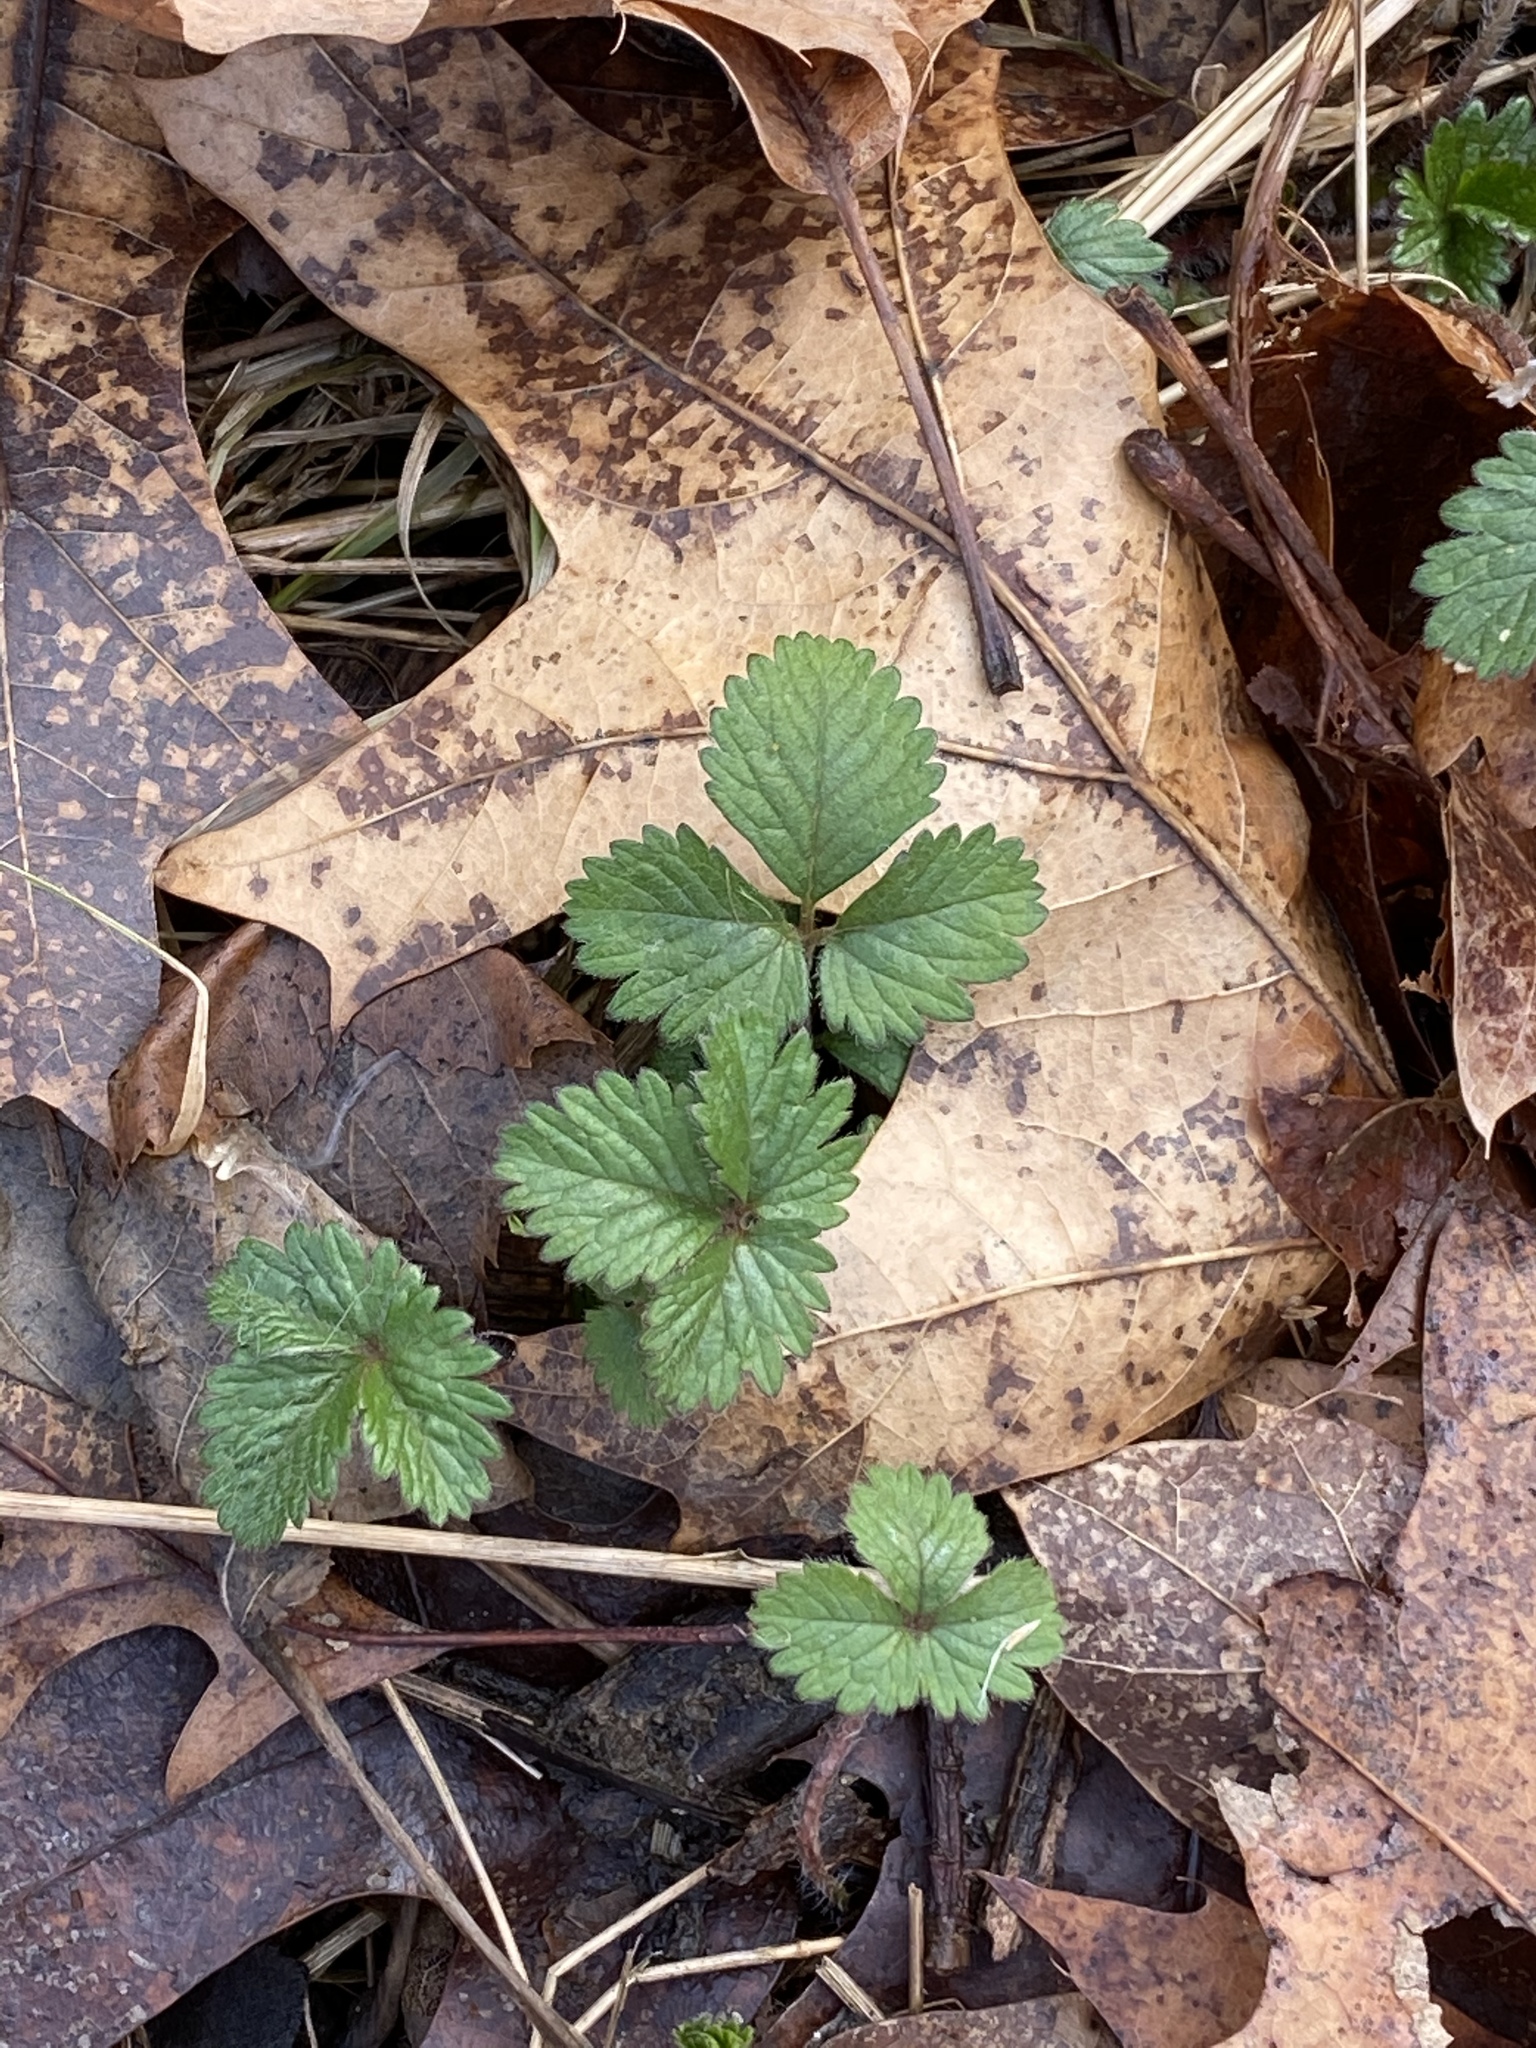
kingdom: Plantae
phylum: Tracheophyta
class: Magnoliopsida
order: Rosales
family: Rosaceae
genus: Potentilla
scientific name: Potentilla indica
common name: Yellow-flowered strawberry
